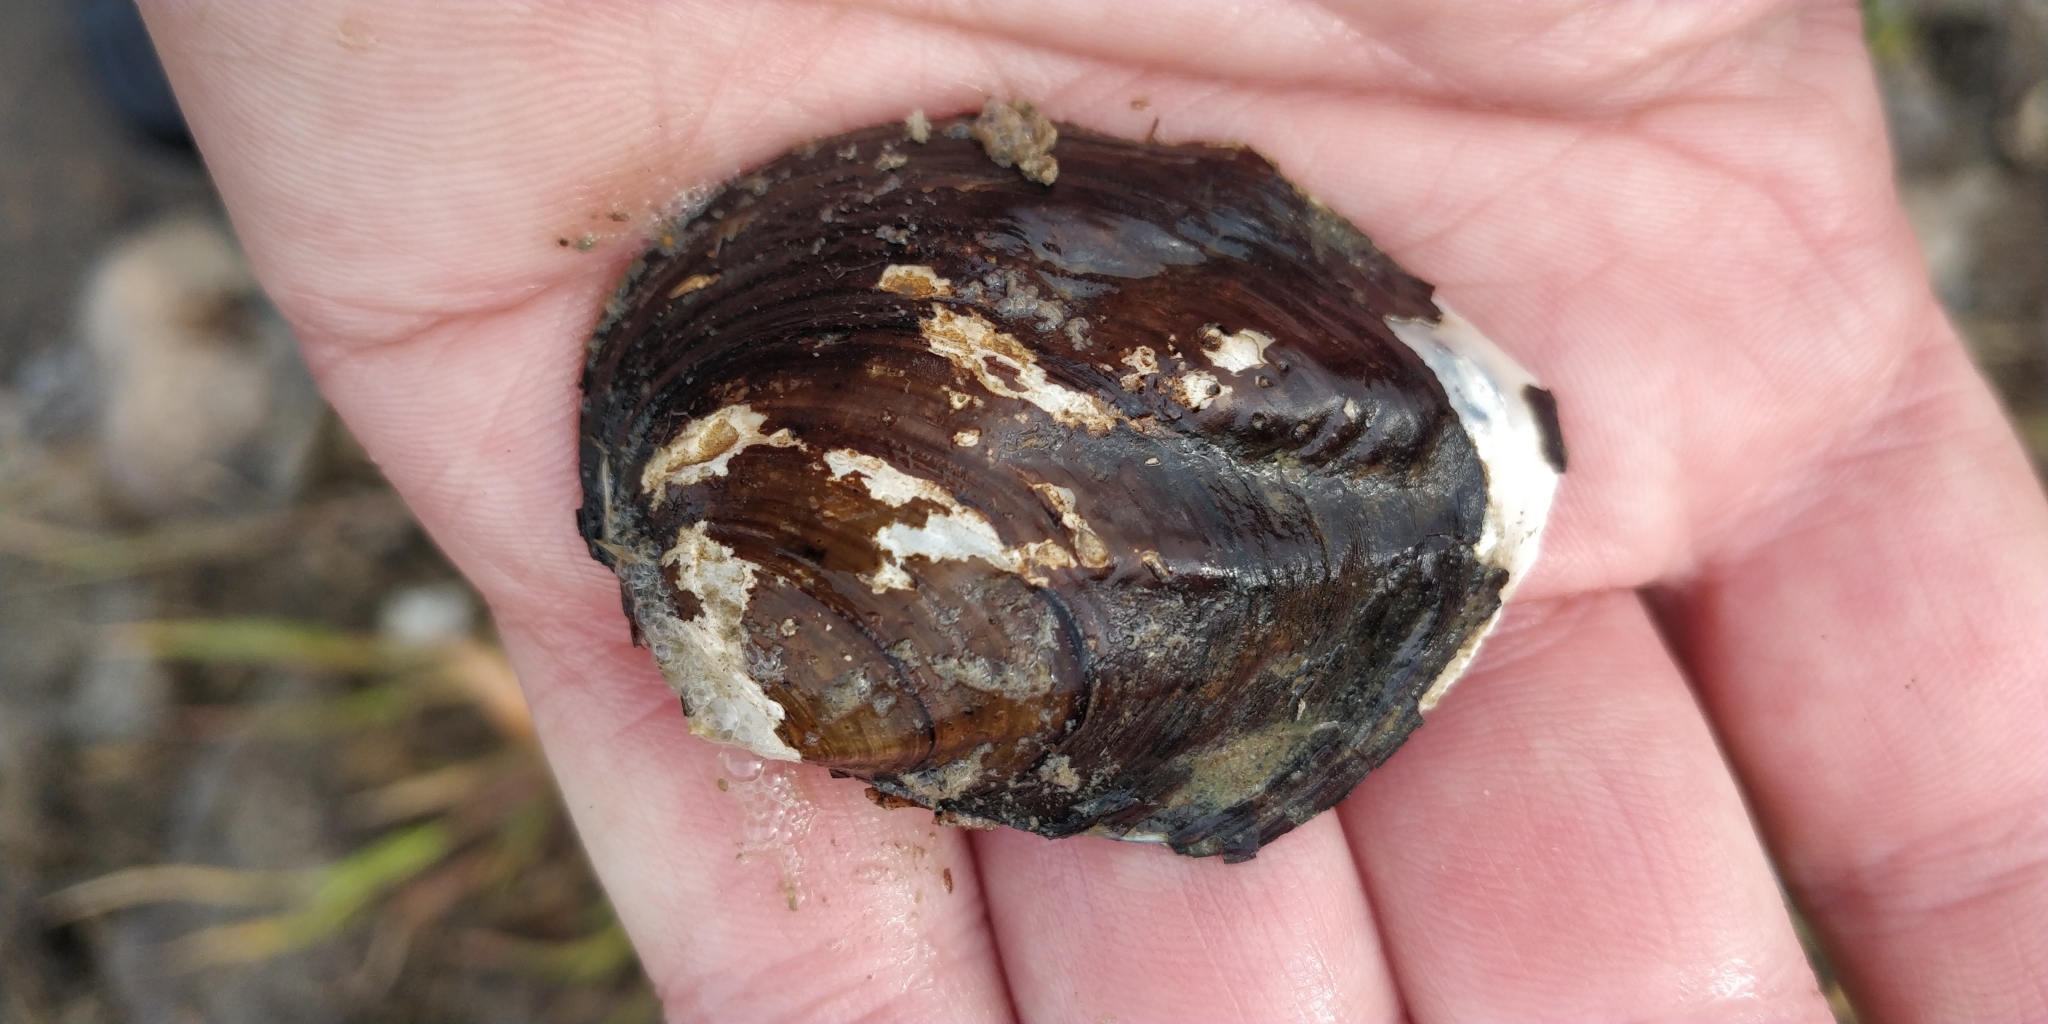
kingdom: Animalia
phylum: Mollusca
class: Bivalvia
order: Unionida
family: Unionidae
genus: Amblema
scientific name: Amblema plicata
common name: Threeridge
